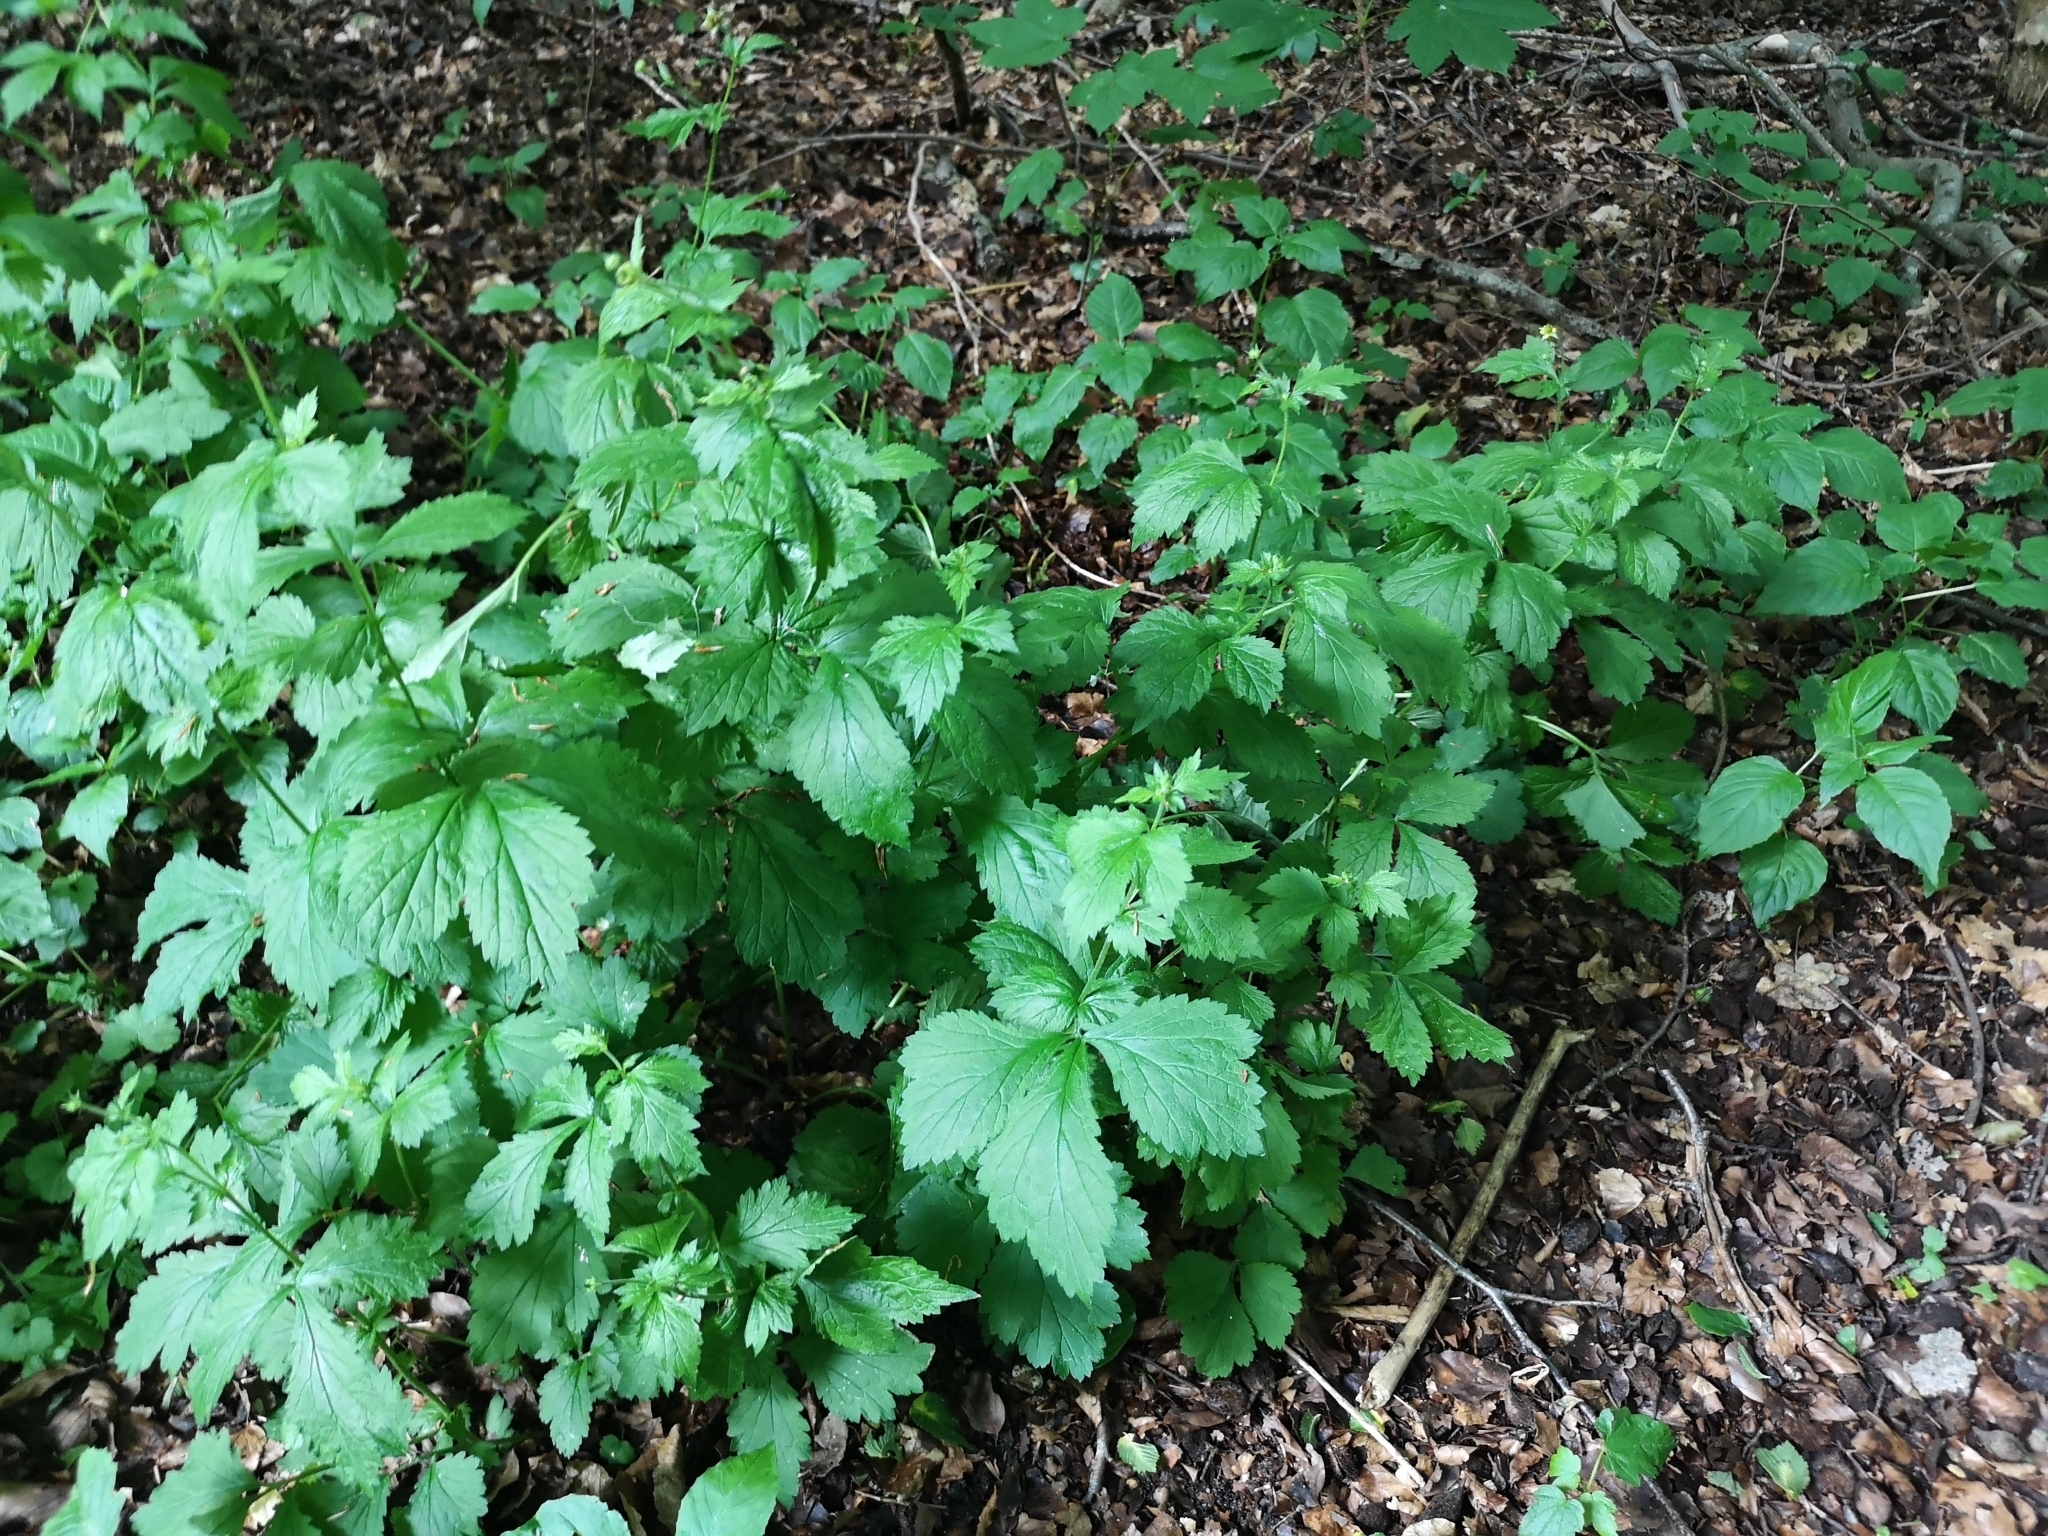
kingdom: Plantae
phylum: Tracheophyta
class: Magnoliopsida
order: Rosales
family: Rosaceae
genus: Geum
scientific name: Geum urbanum
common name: Wood avens
